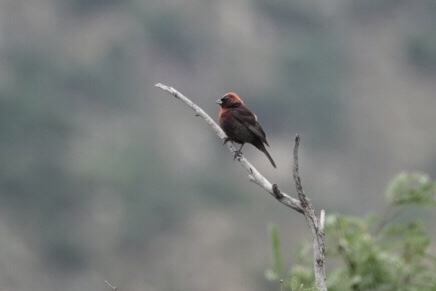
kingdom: Animalia
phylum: Chordata
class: Aves
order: Passeriformes
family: Cardinalidae
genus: Passerina
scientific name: Passerina versicolor
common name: Varied bunting
